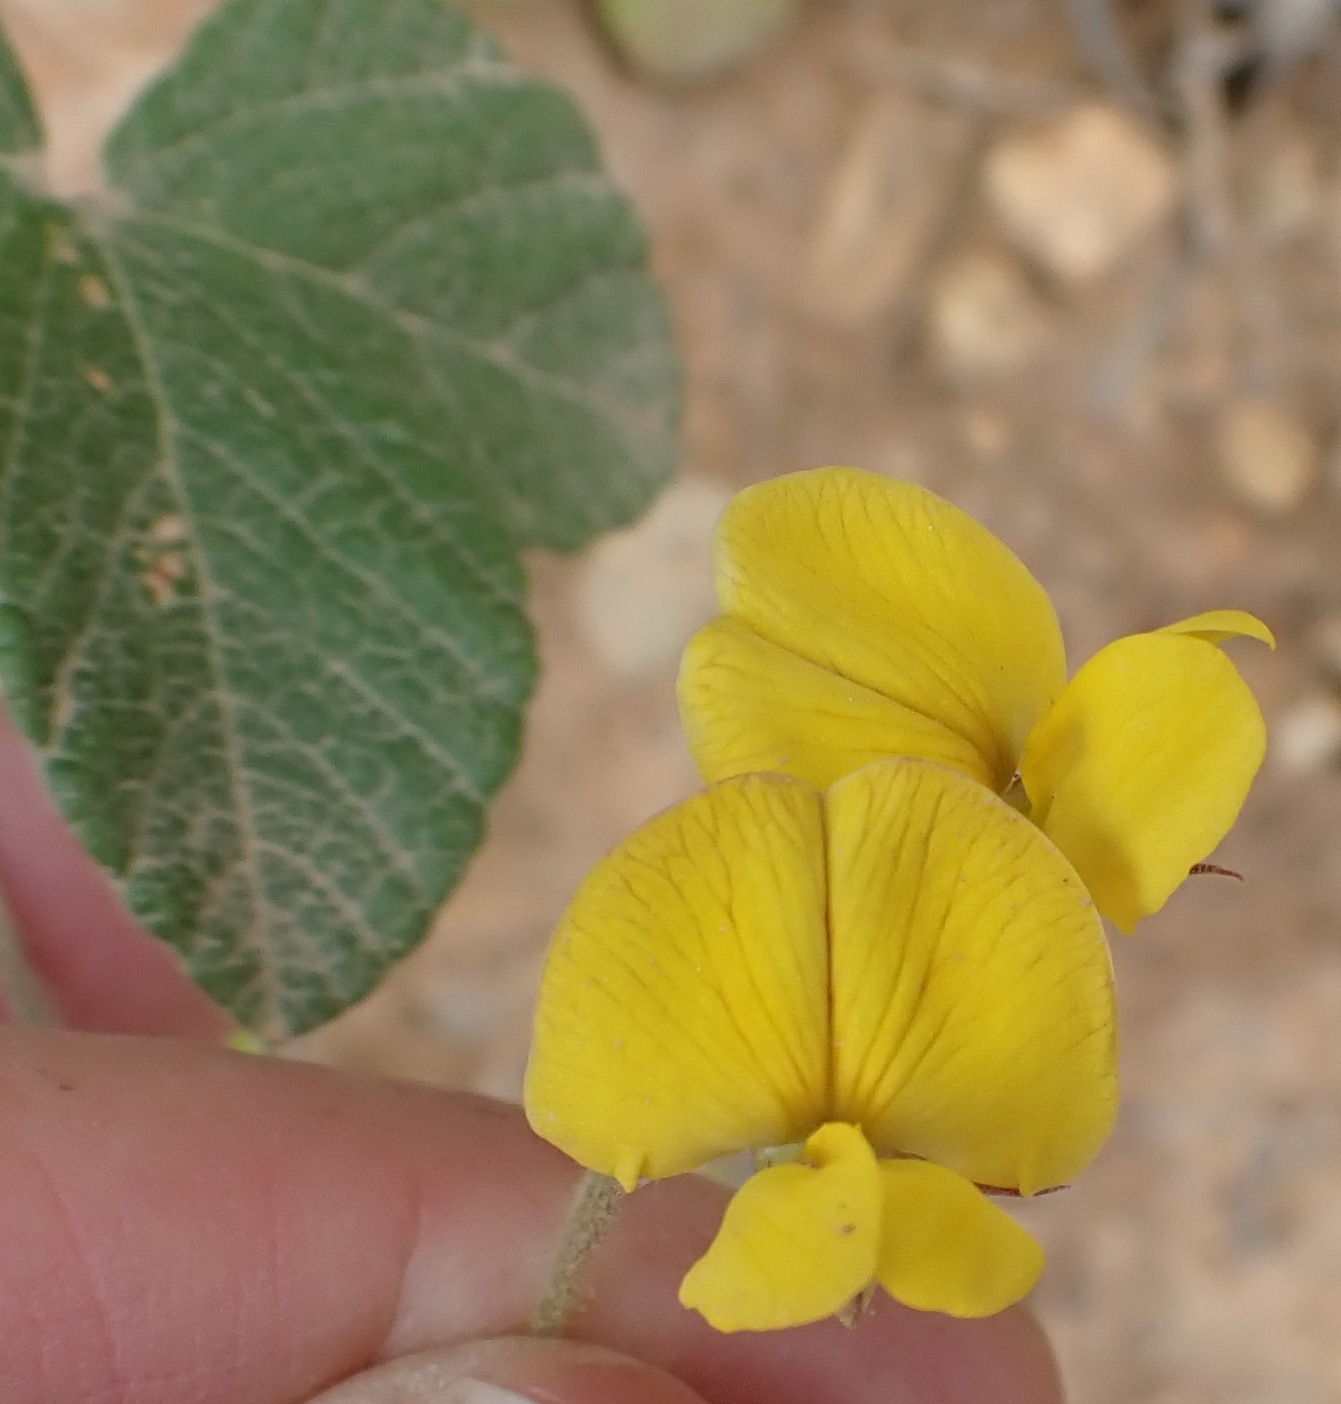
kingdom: Plantae
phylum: Tracheophyta
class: Magnoliopsida
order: Fabales
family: Fabaceae
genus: Rhynchosia
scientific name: Rhynchosia caribaea
